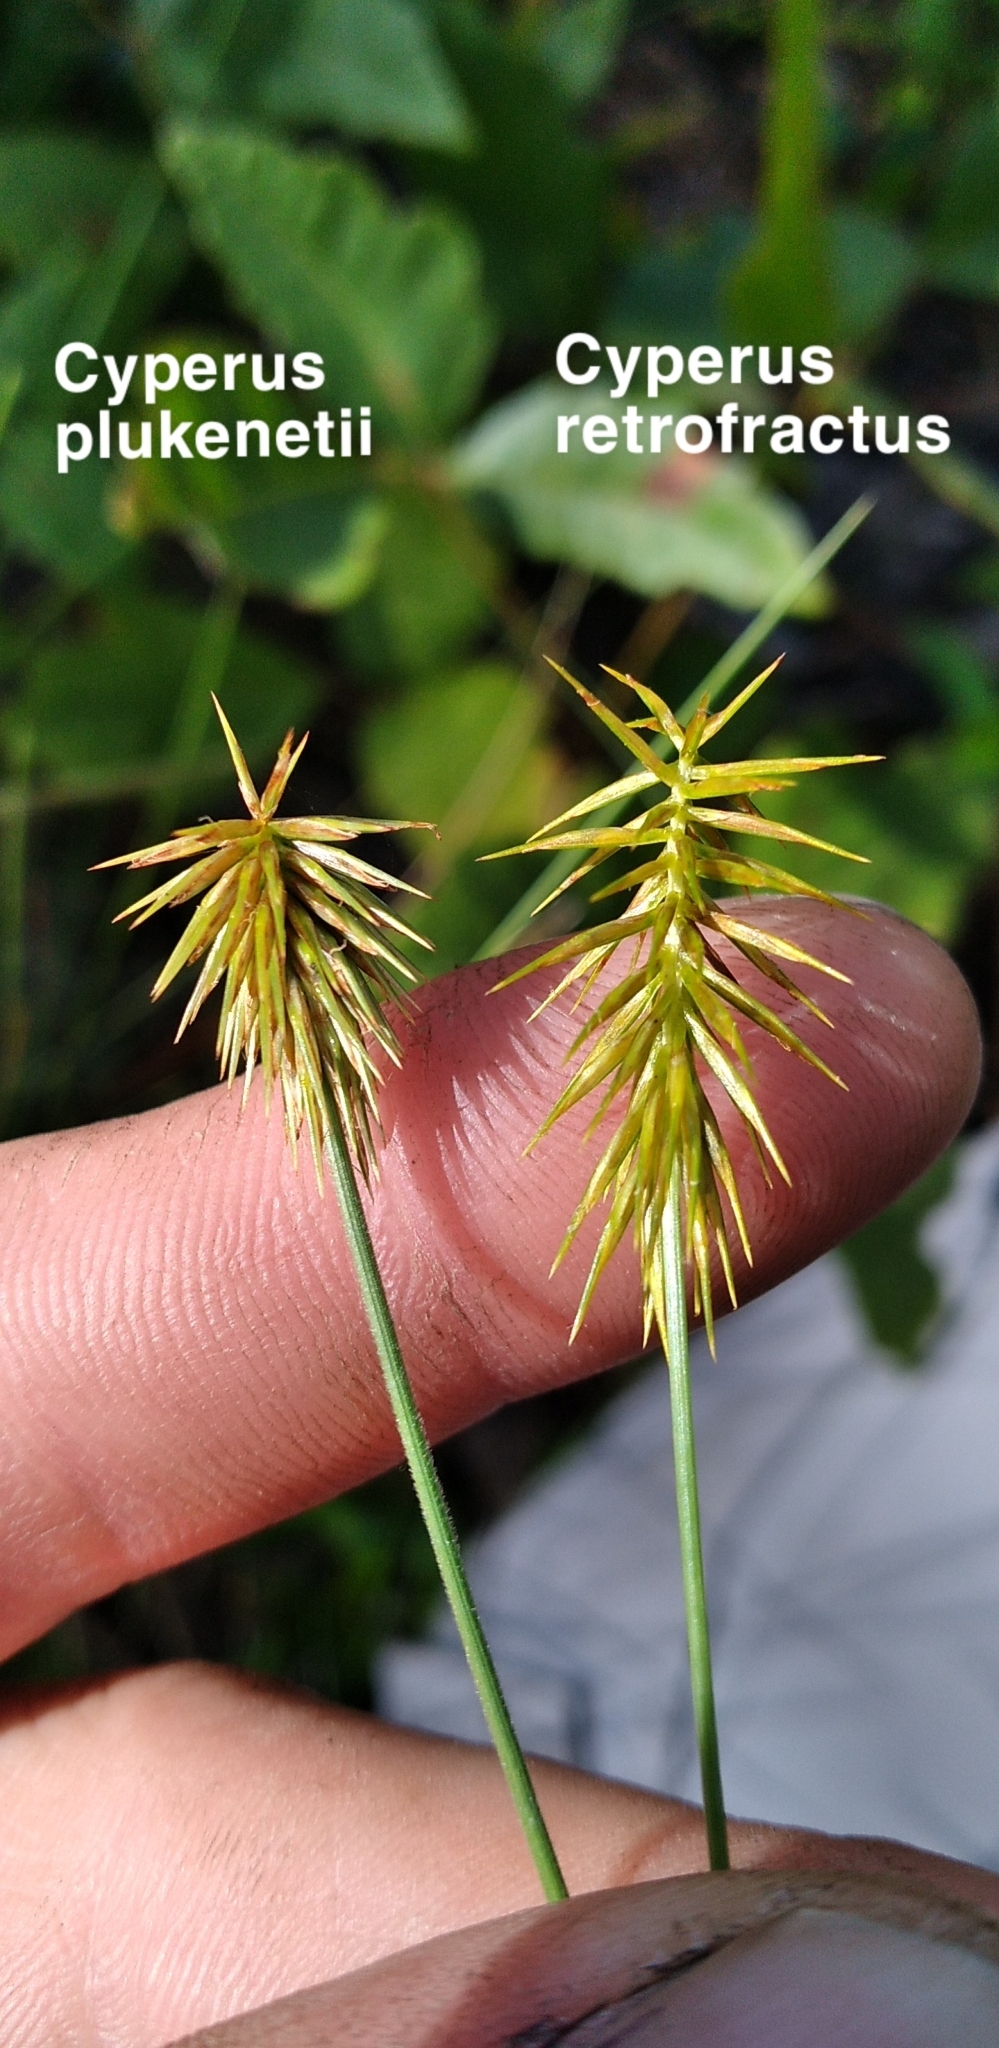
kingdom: Plantae
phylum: Tracheophyta
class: Liliopsida
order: Poales
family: Cyperaceae
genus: Cyperus
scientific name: Cyperus retrofractus
